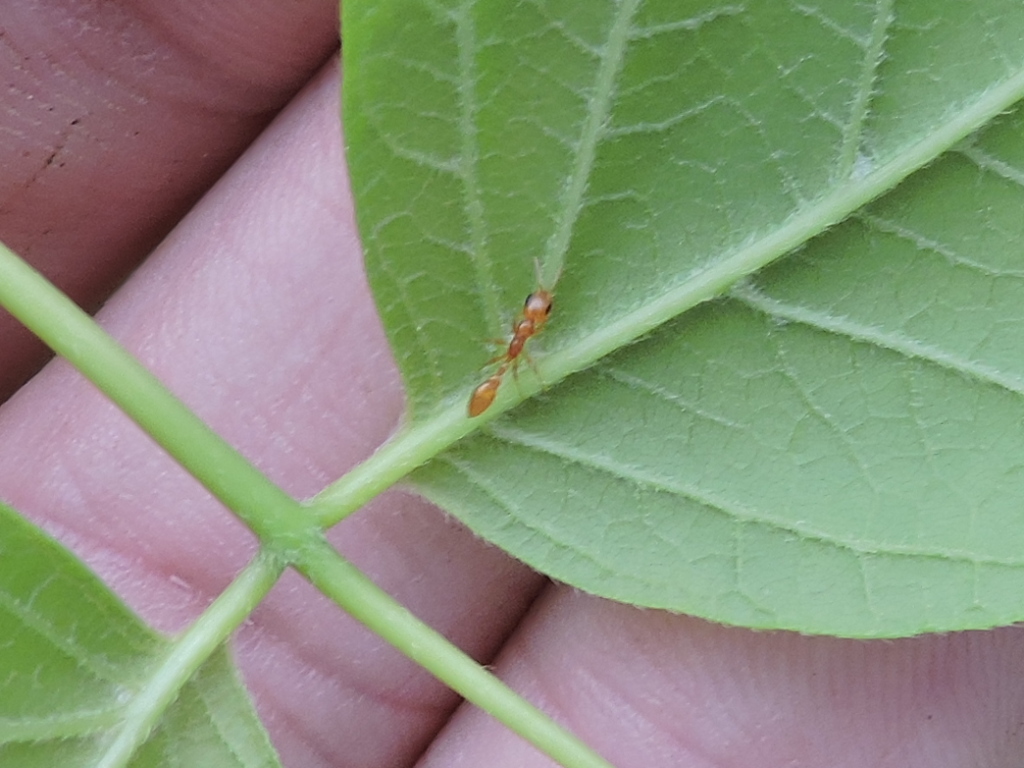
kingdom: Animalia
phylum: Arthropoda
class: Insecta
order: Hymenoptera
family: Formicidae
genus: Pseudomyrmex
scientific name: Pseudomyrmex pallidus
